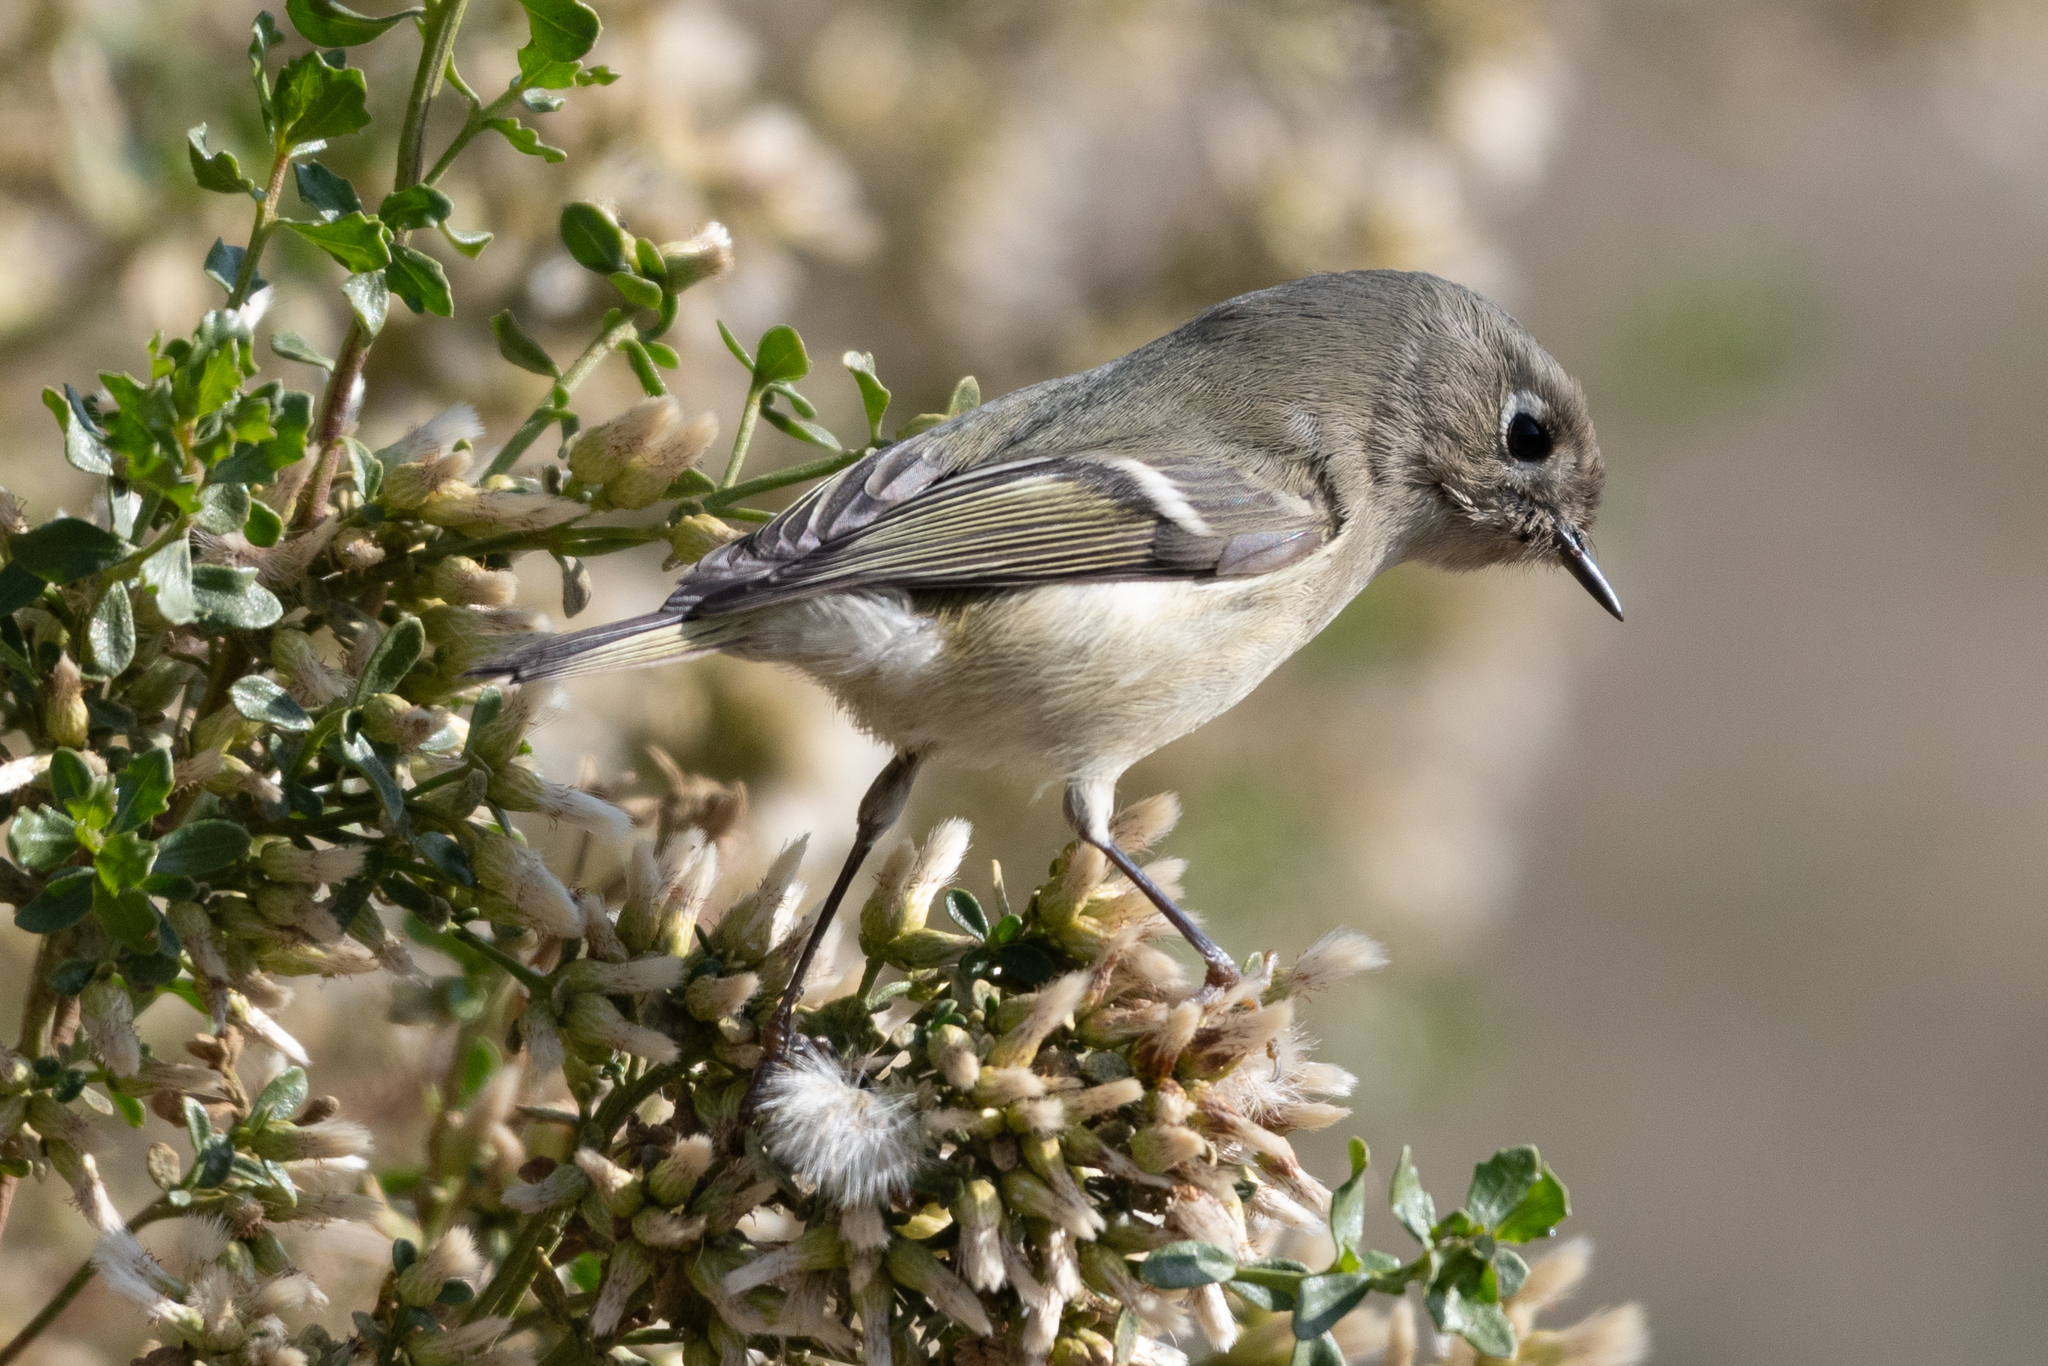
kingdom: Animalia
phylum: Chordata
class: Aves
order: Passeriformes
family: Regulidae
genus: Regulus
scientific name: Regulus calendula
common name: Ruby-crowned kinglet
